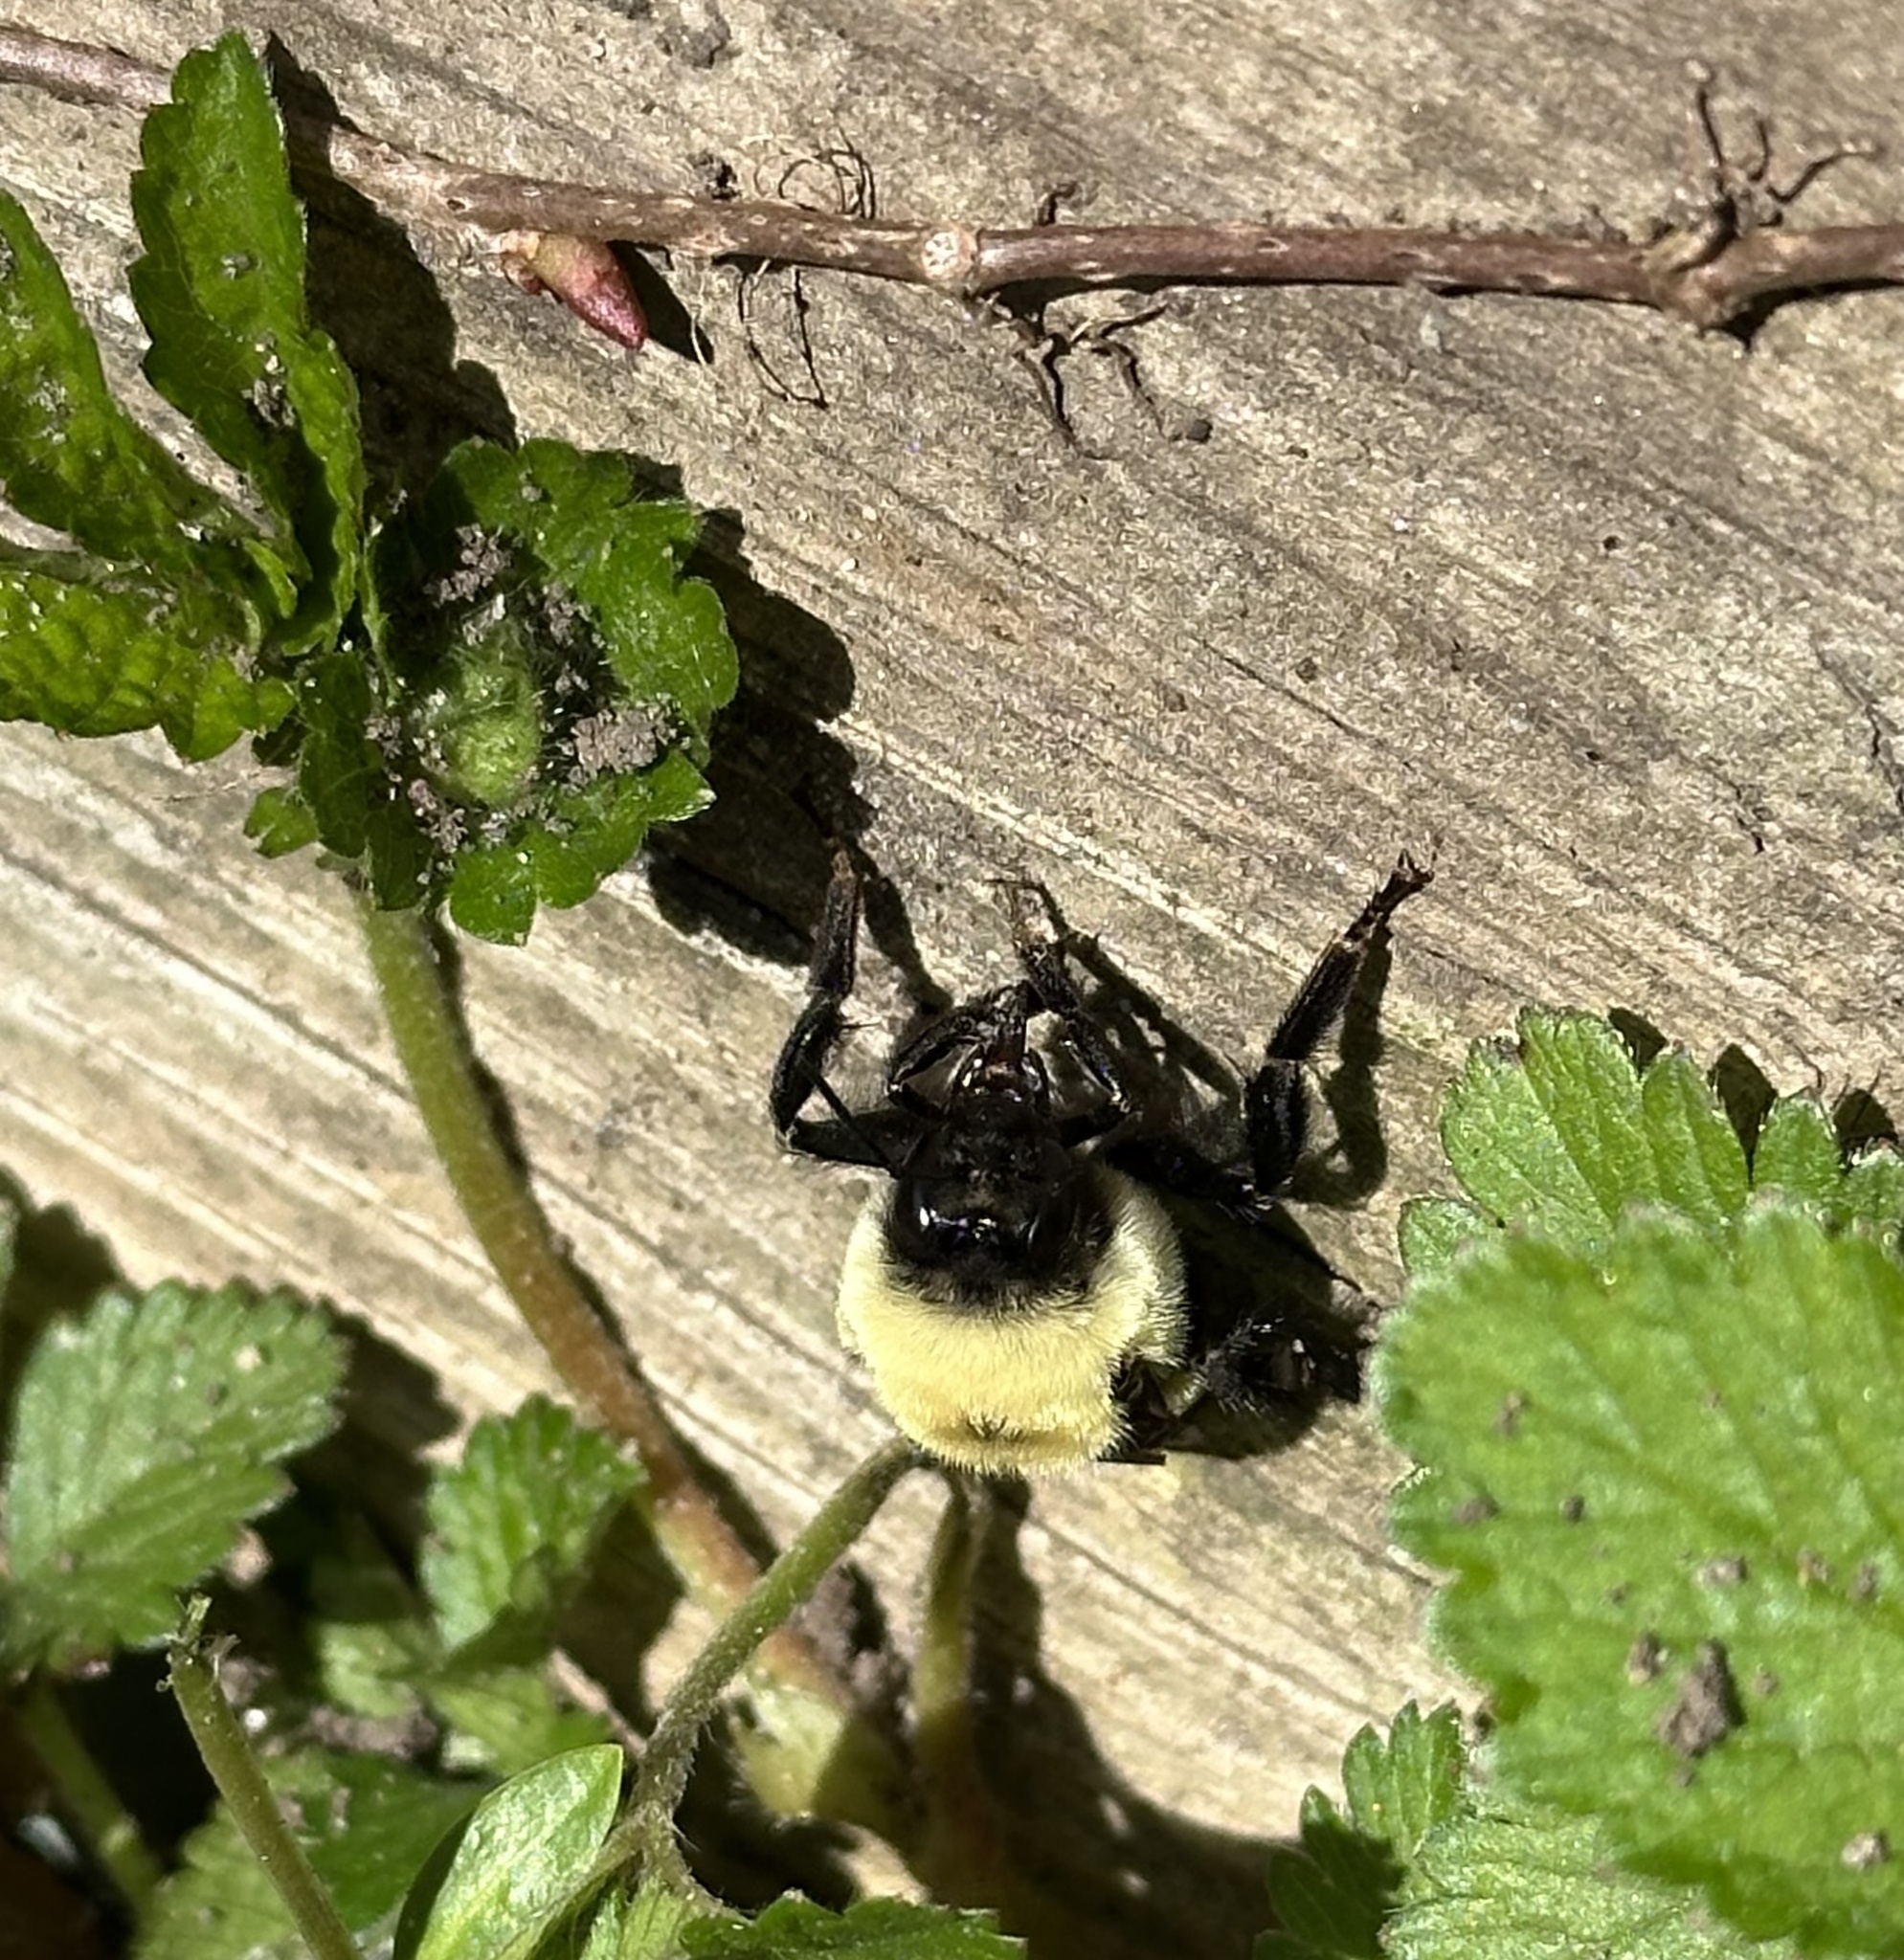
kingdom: Animalia
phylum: Arthropoda
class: Insecta
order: Hymenoptera
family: Apidae
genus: Bombus
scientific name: Bombus griseocollis
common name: Brown-belted bumble bee
